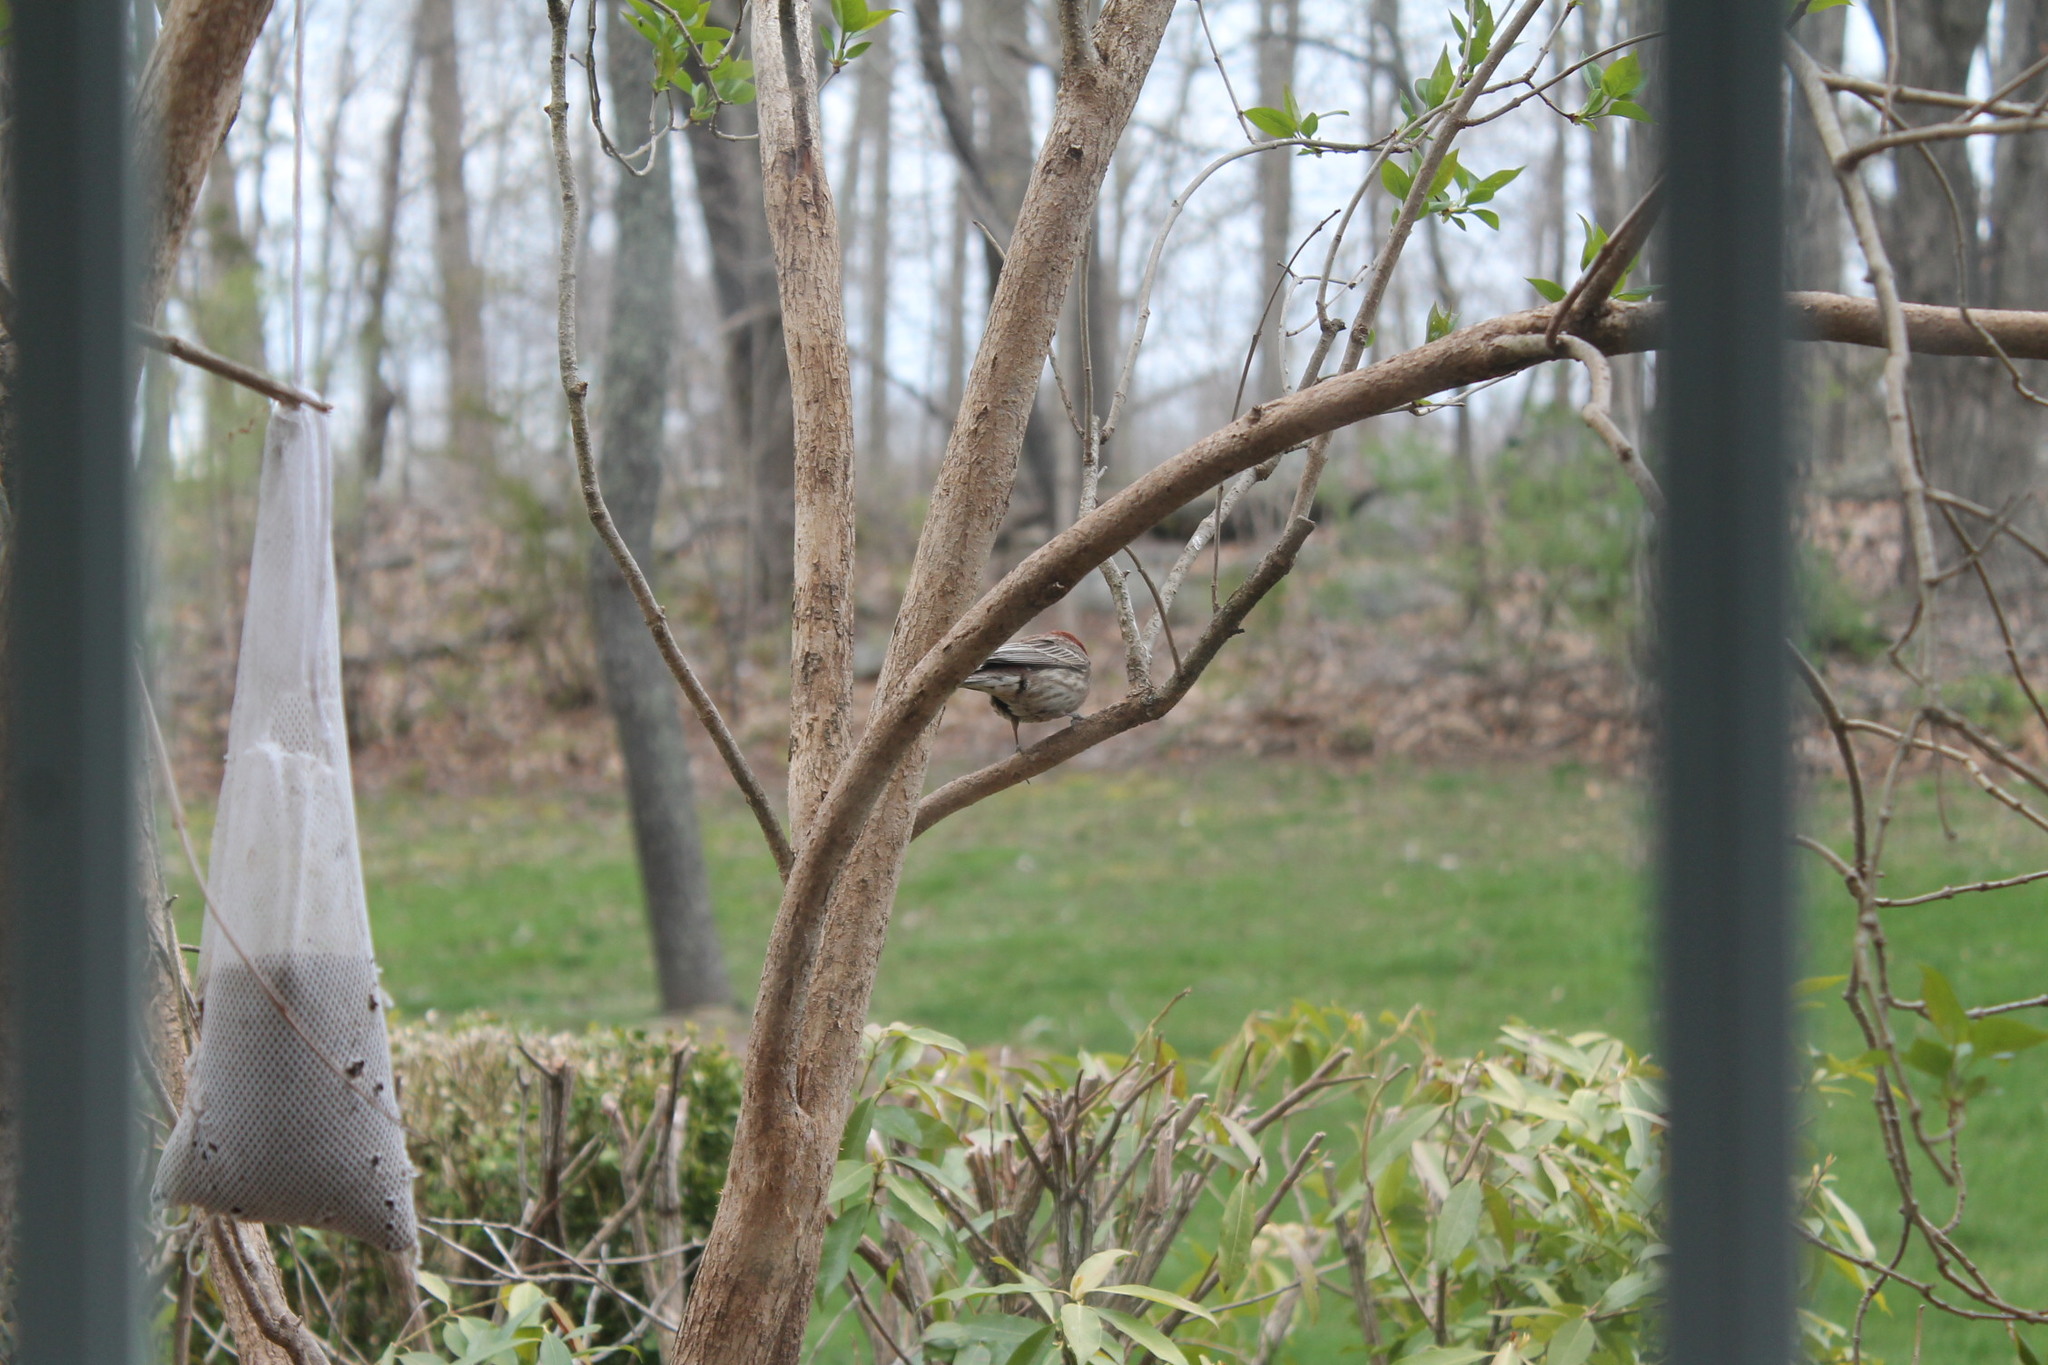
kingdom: Animalia
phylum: Chordata
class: Aves
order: Passeriformes
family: Fringillidae
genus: Haemorhous
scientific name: Haemorhous mexicanus
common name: House finch
